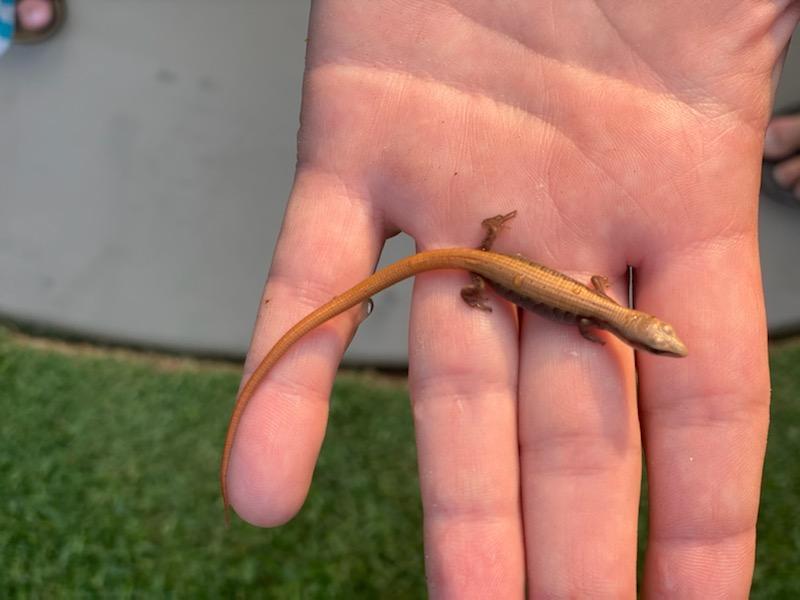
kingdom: Animalia
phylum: Chordata
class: Squamata
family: Anguidae
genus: Elgaria
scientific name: Elgaria multicarinata
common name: Southern alligator lizard
